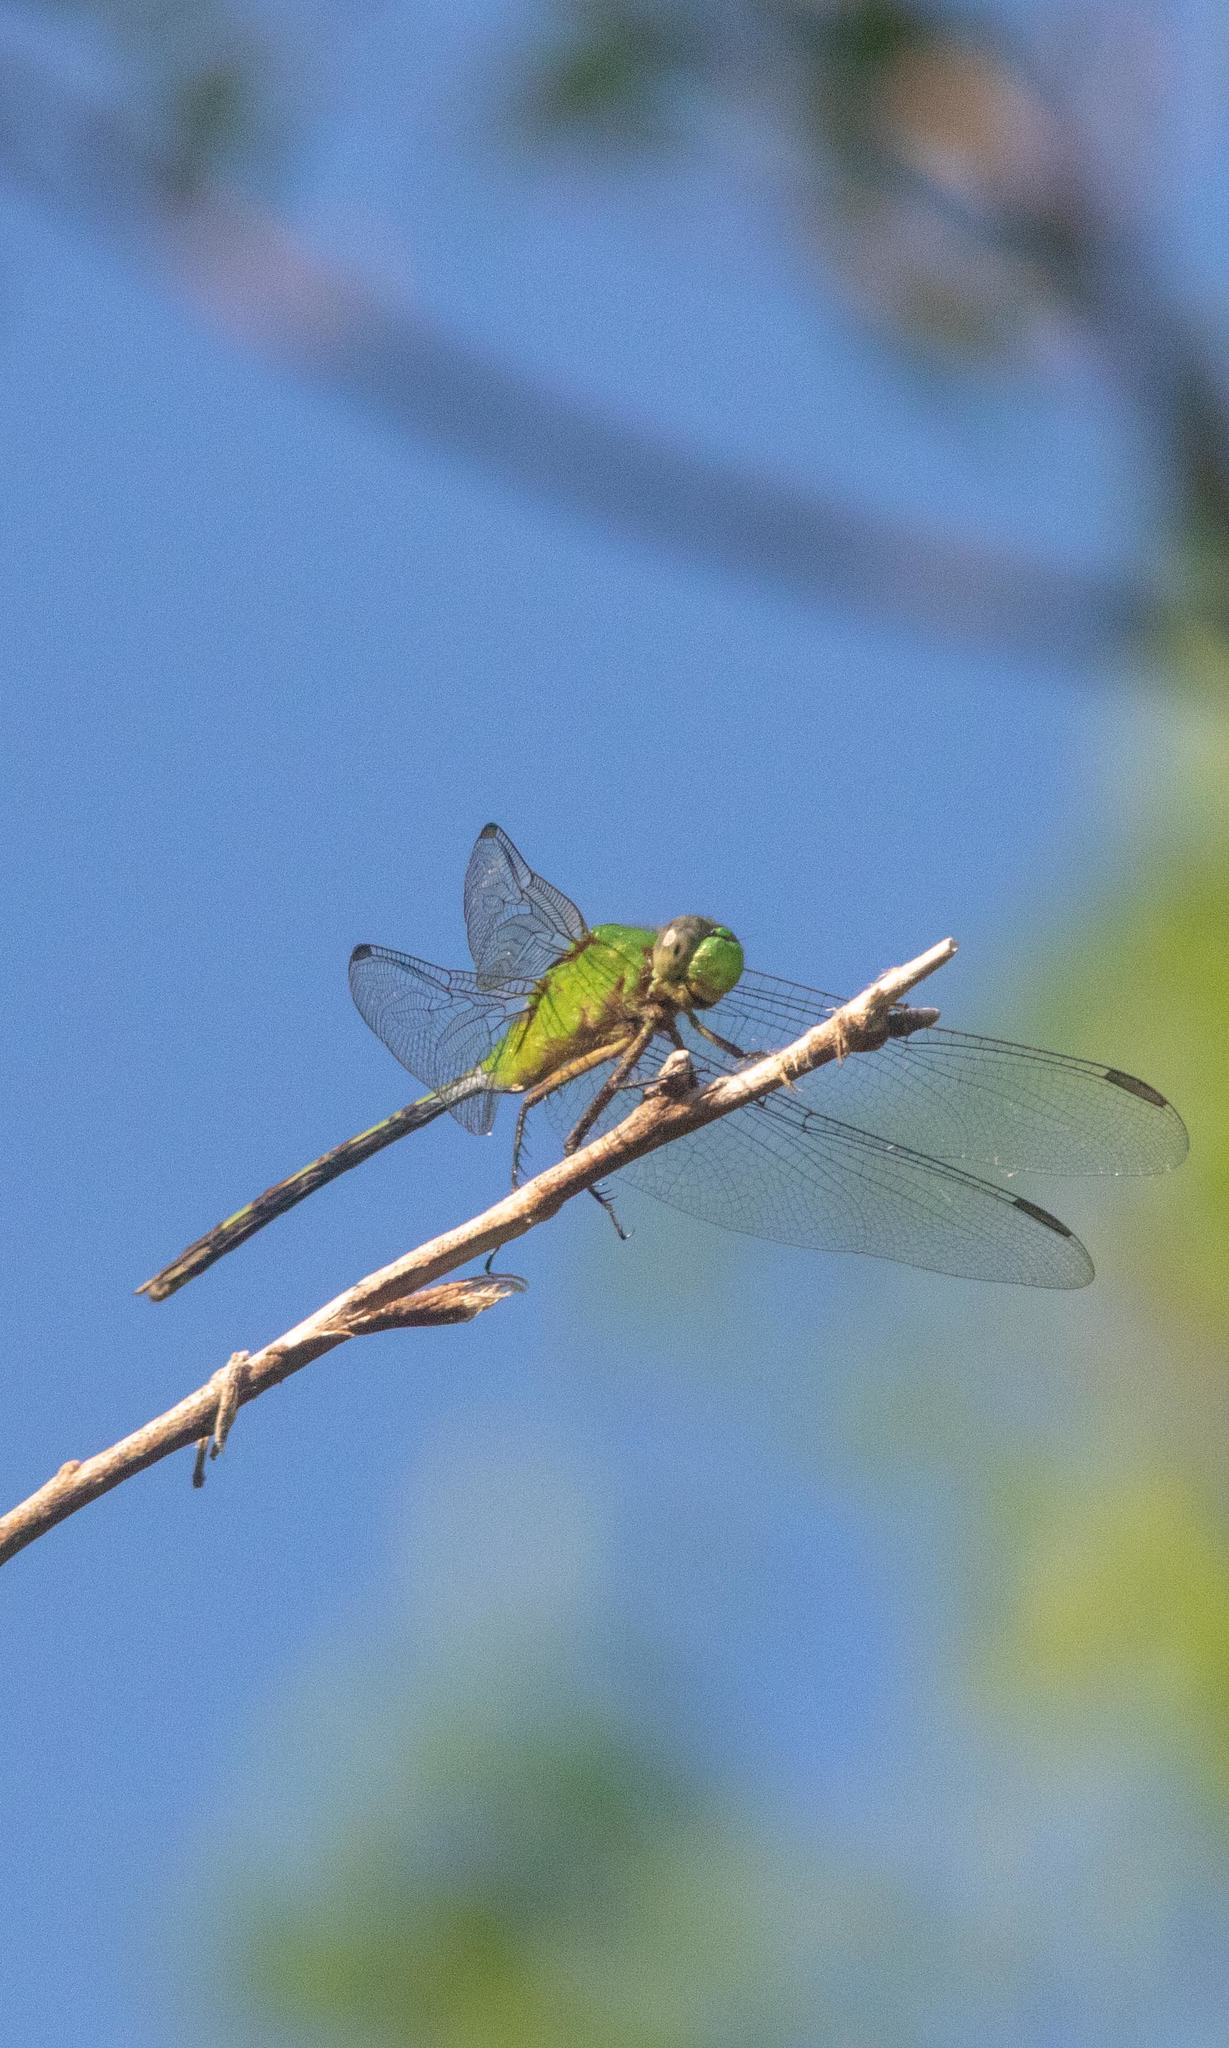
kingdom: Animalia
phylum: Arthropoda
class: Insecta
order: Odonata
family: Libellulidae
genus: Erythemis
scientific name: Erythemis vesiculosa
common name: Great pondhawk
